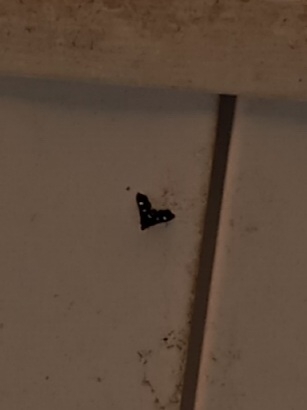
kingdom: Animalia
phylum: Arthropoda
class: Insecta
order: Lepidoptera
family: Crambidae
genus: Desmia
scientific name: Desmia
